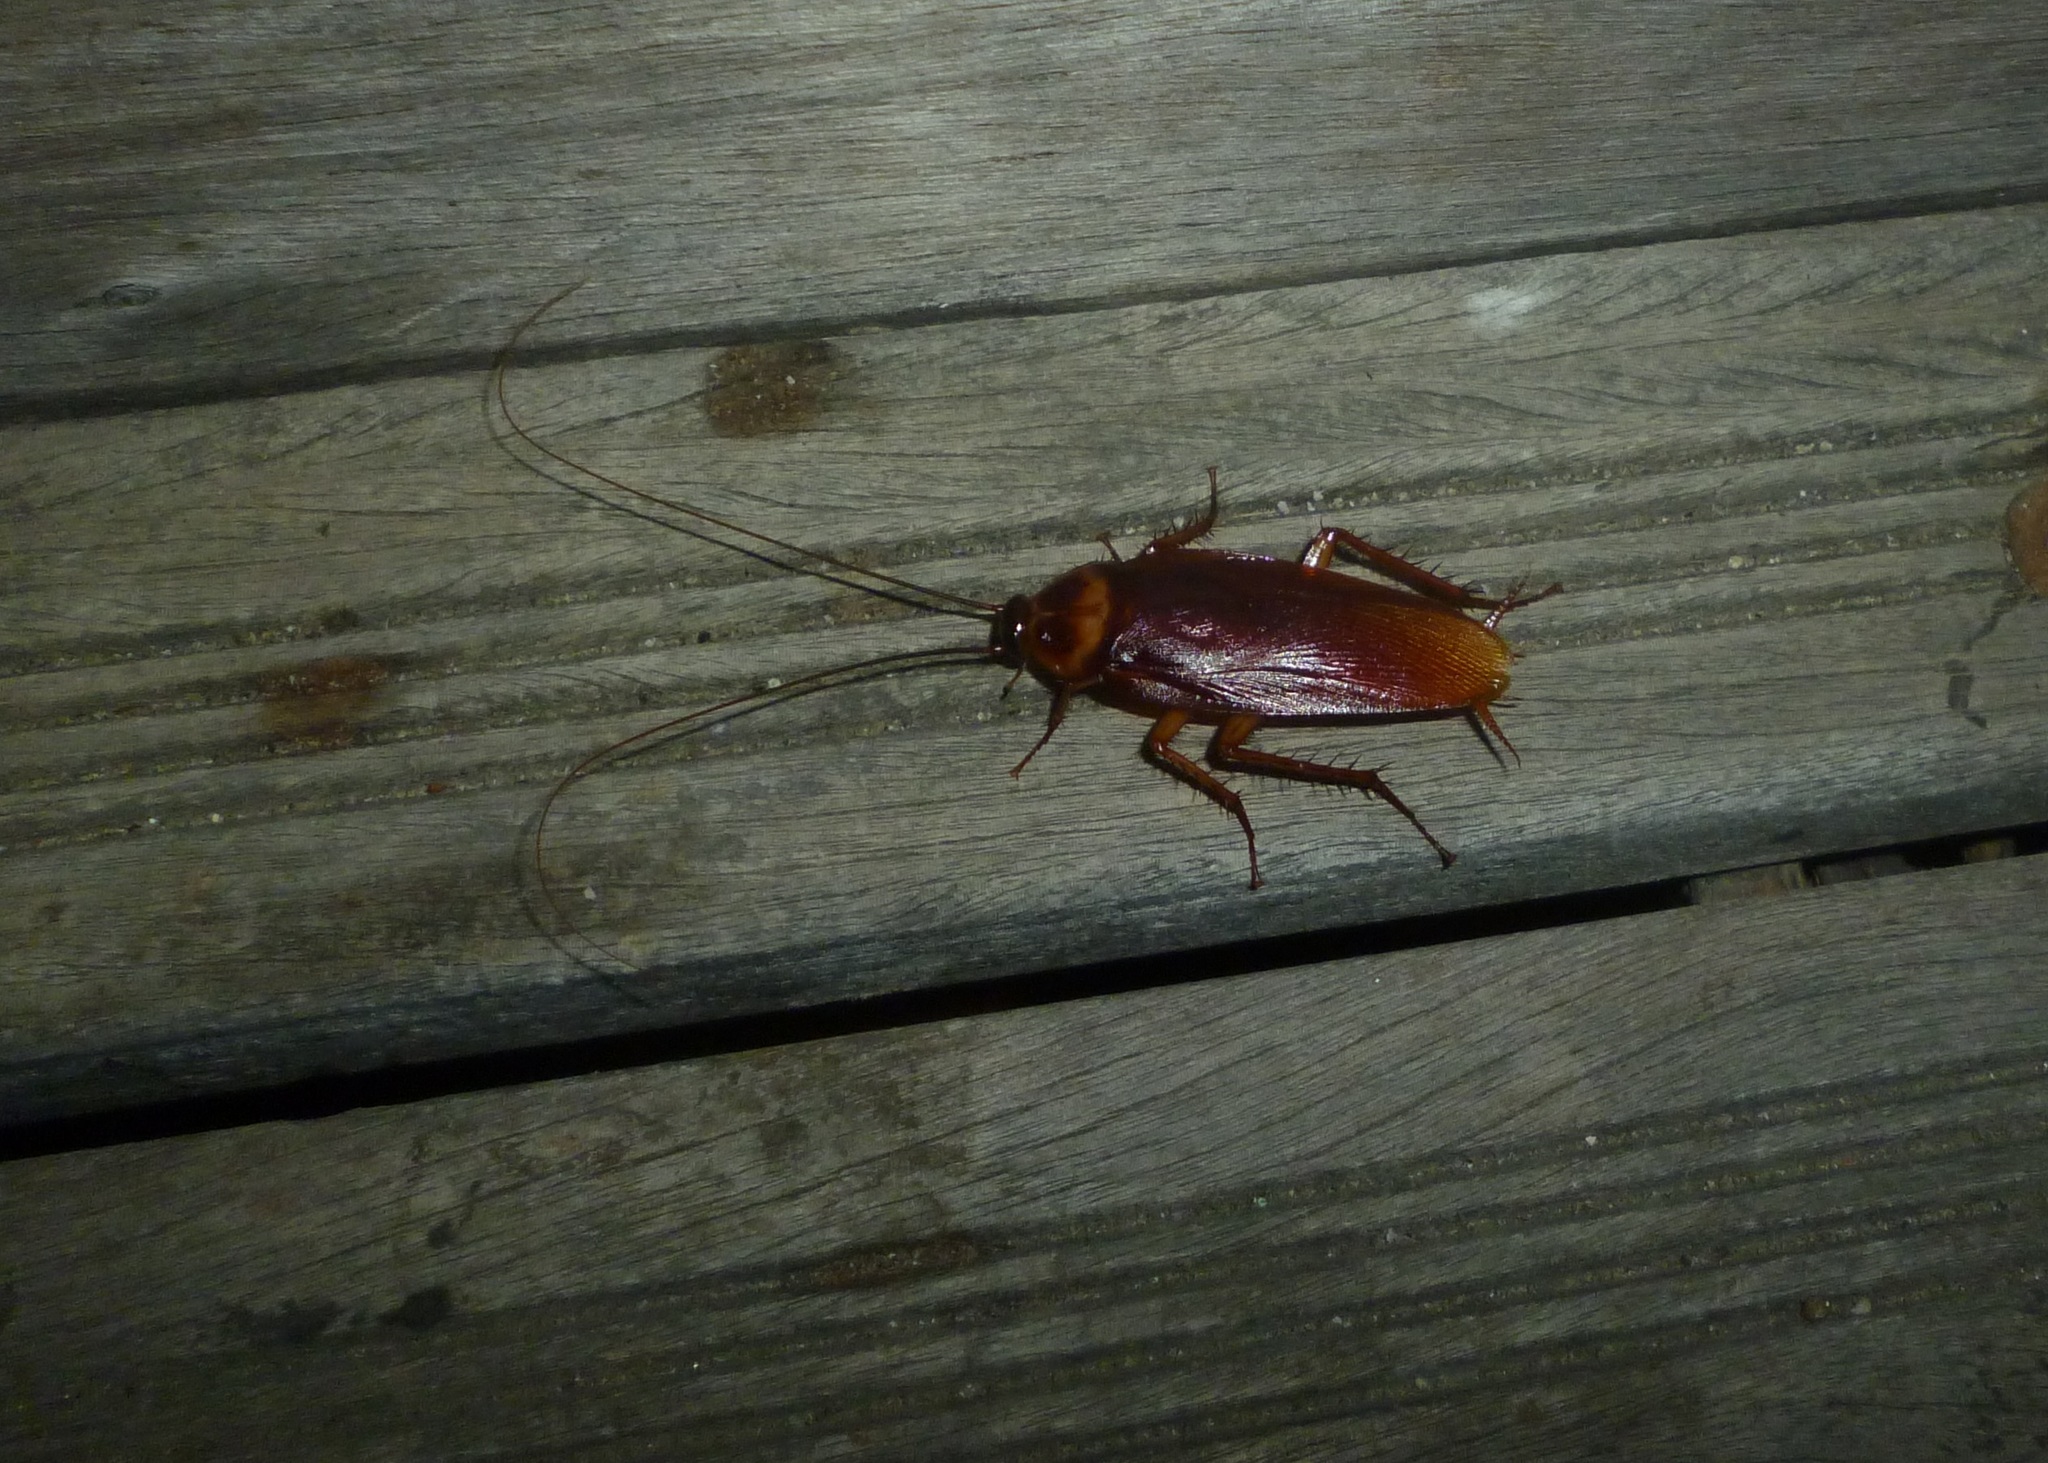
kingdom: Animalia
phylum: Arthropoda
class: Insecta
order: Blattodea
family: Blattidae
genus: Periplaneta
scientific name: Periplaneta americana
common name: American cockroach
